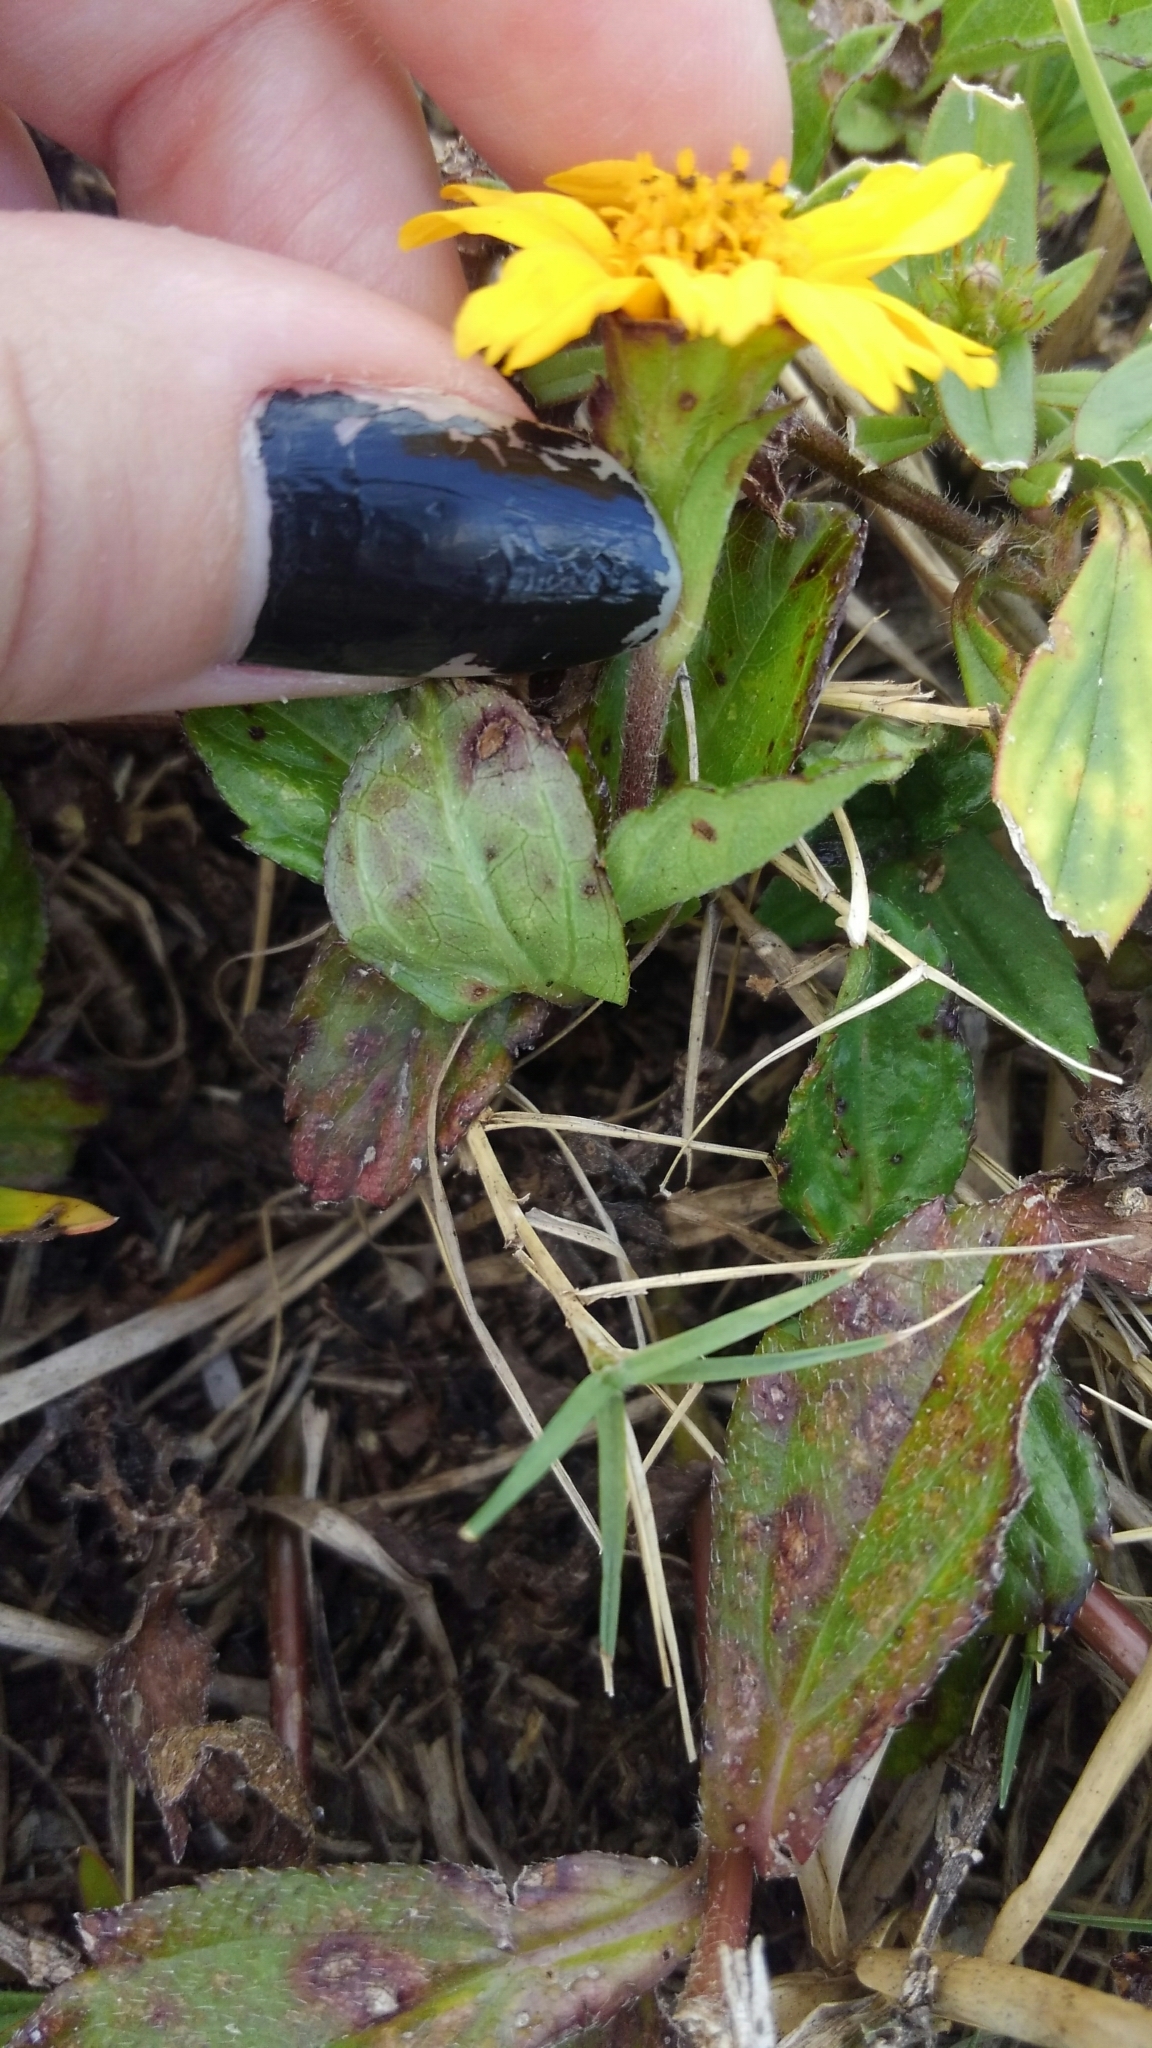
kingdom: Plantae
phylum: Tracheophyta
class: Magnoliopsida
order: Asterales
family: Asteraceae
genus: Sphagneticola
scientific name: Sphagneticola trilobata
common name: Bay biscayne creeping-oxeye
